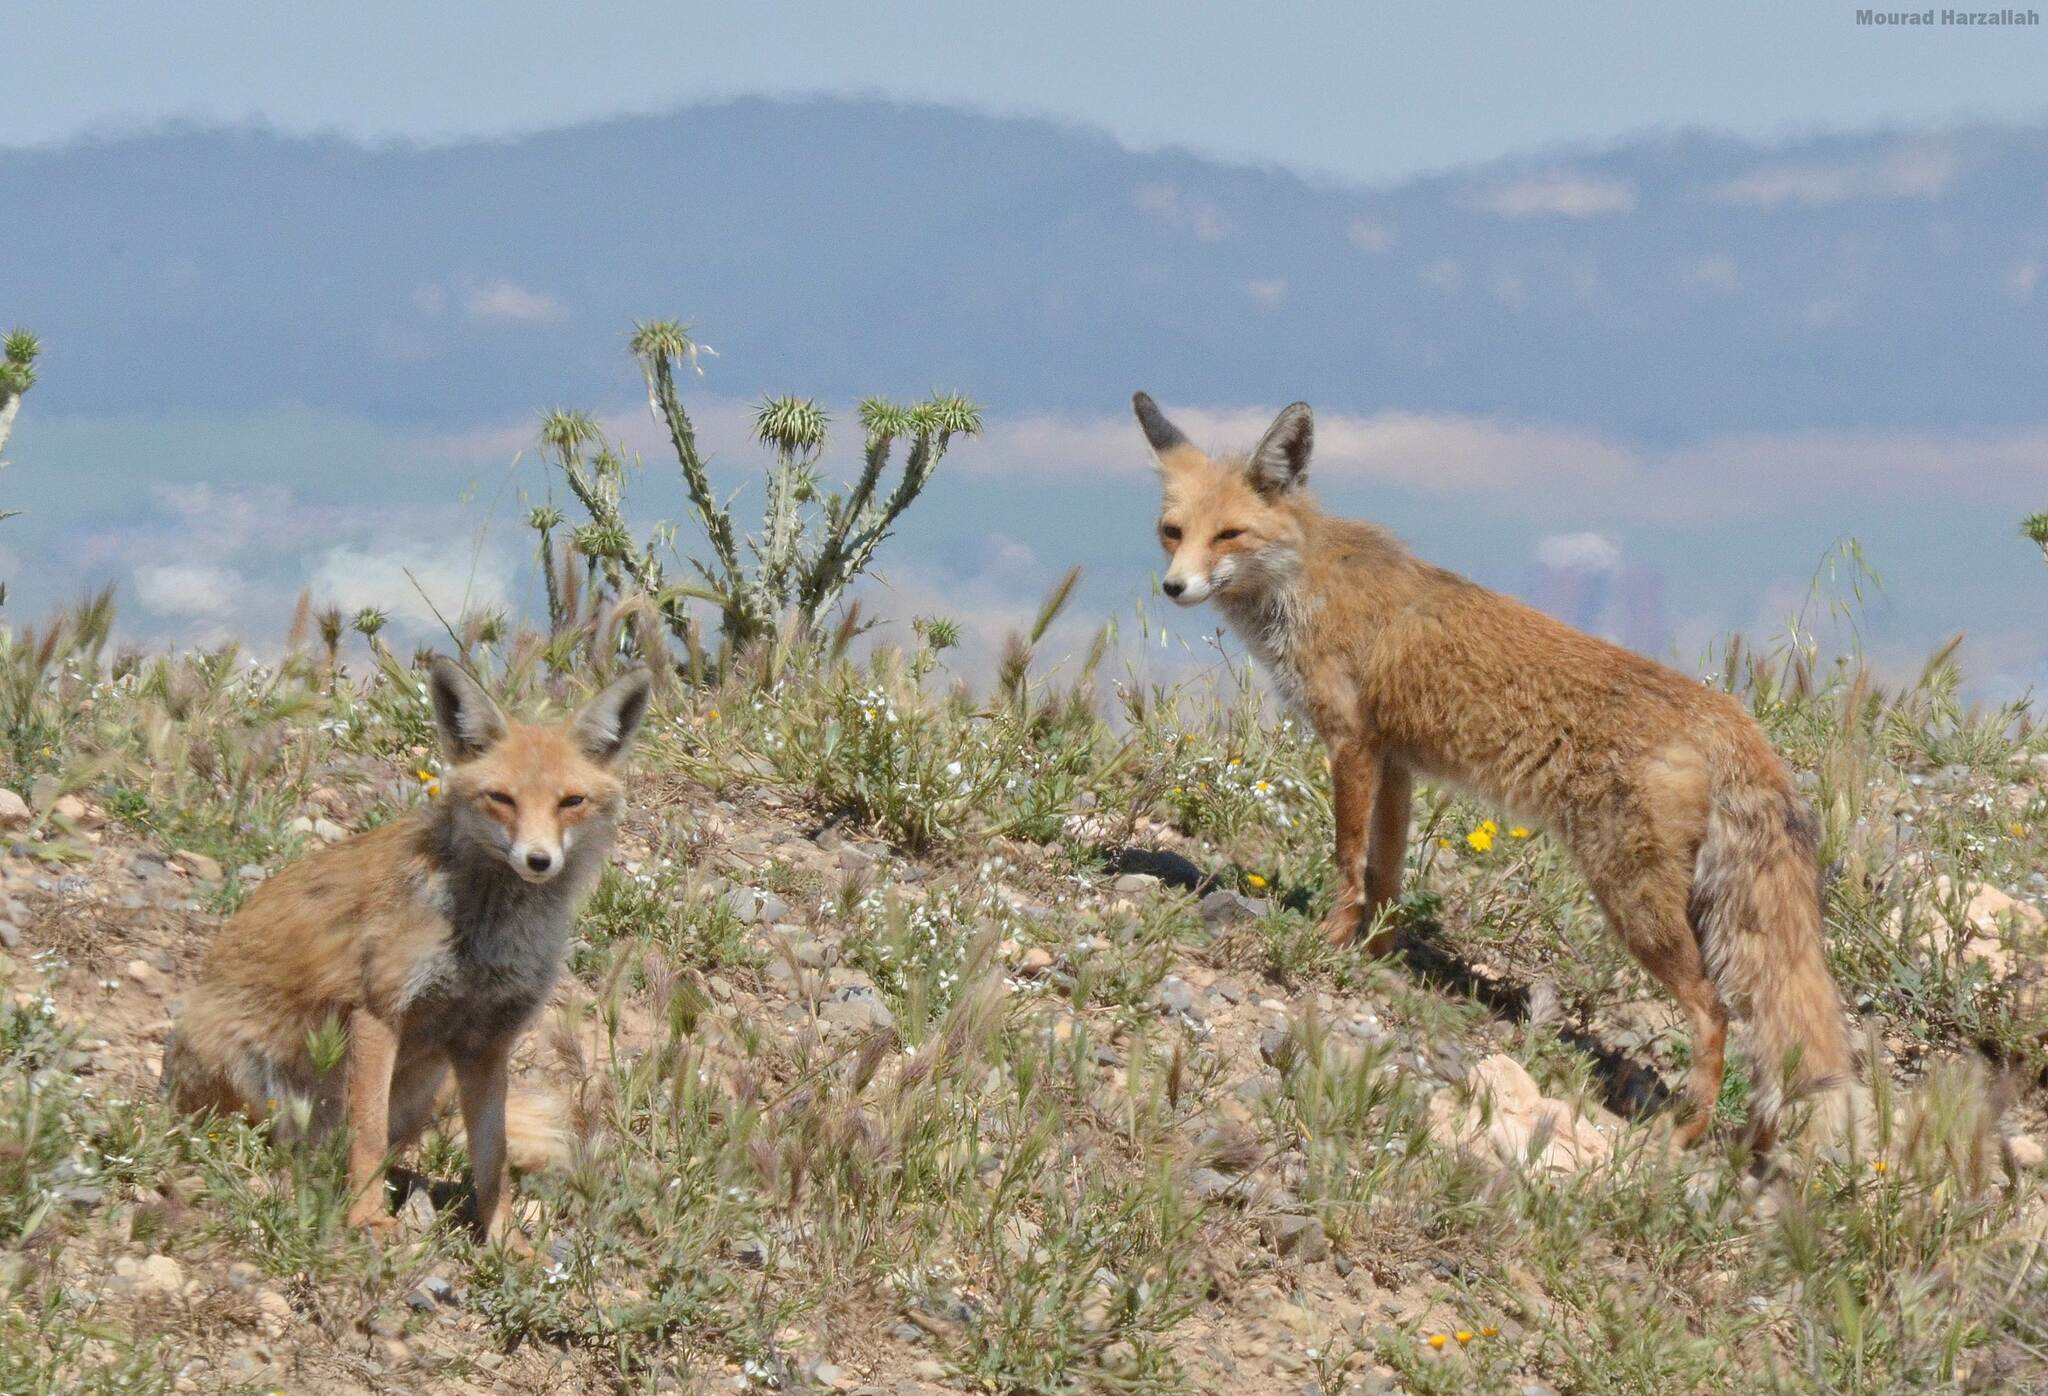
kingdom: Animalia
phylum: Chordata
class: Mammalia
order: Carnivora
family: Canidae
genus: Vulpes
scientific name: Vulpes vulpes
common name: Red fox
